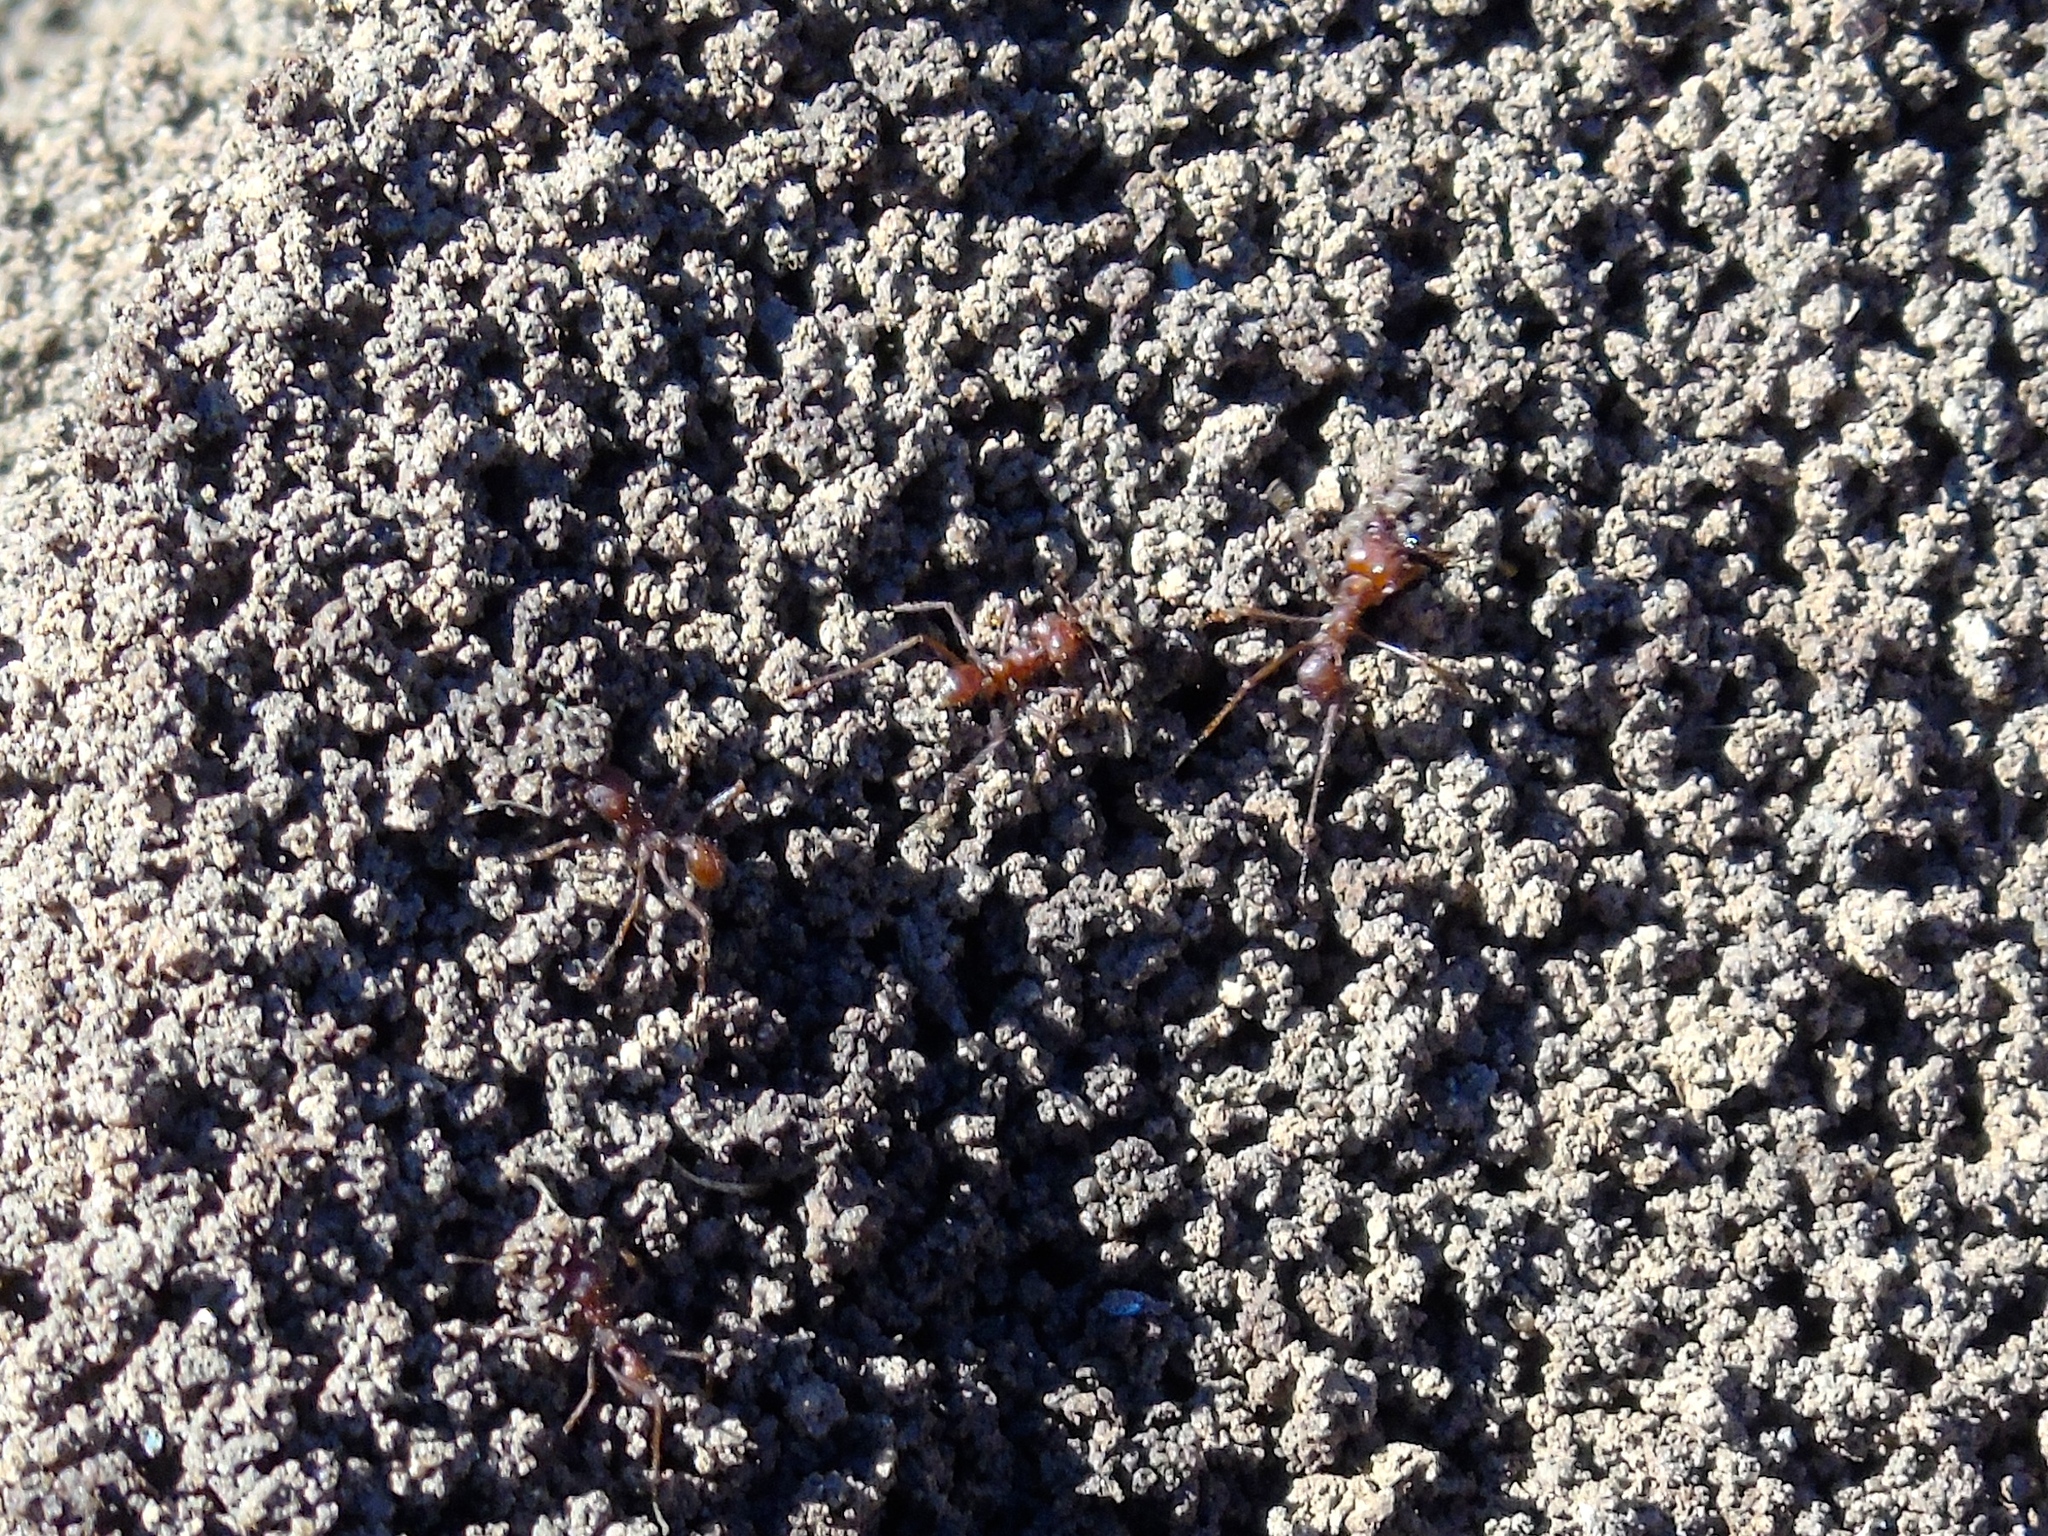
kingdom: Animalia
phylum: Arthropoda
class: Insecta
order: Hymenoptera
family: Formicidae
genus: Atta
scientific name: Atta mexicana
